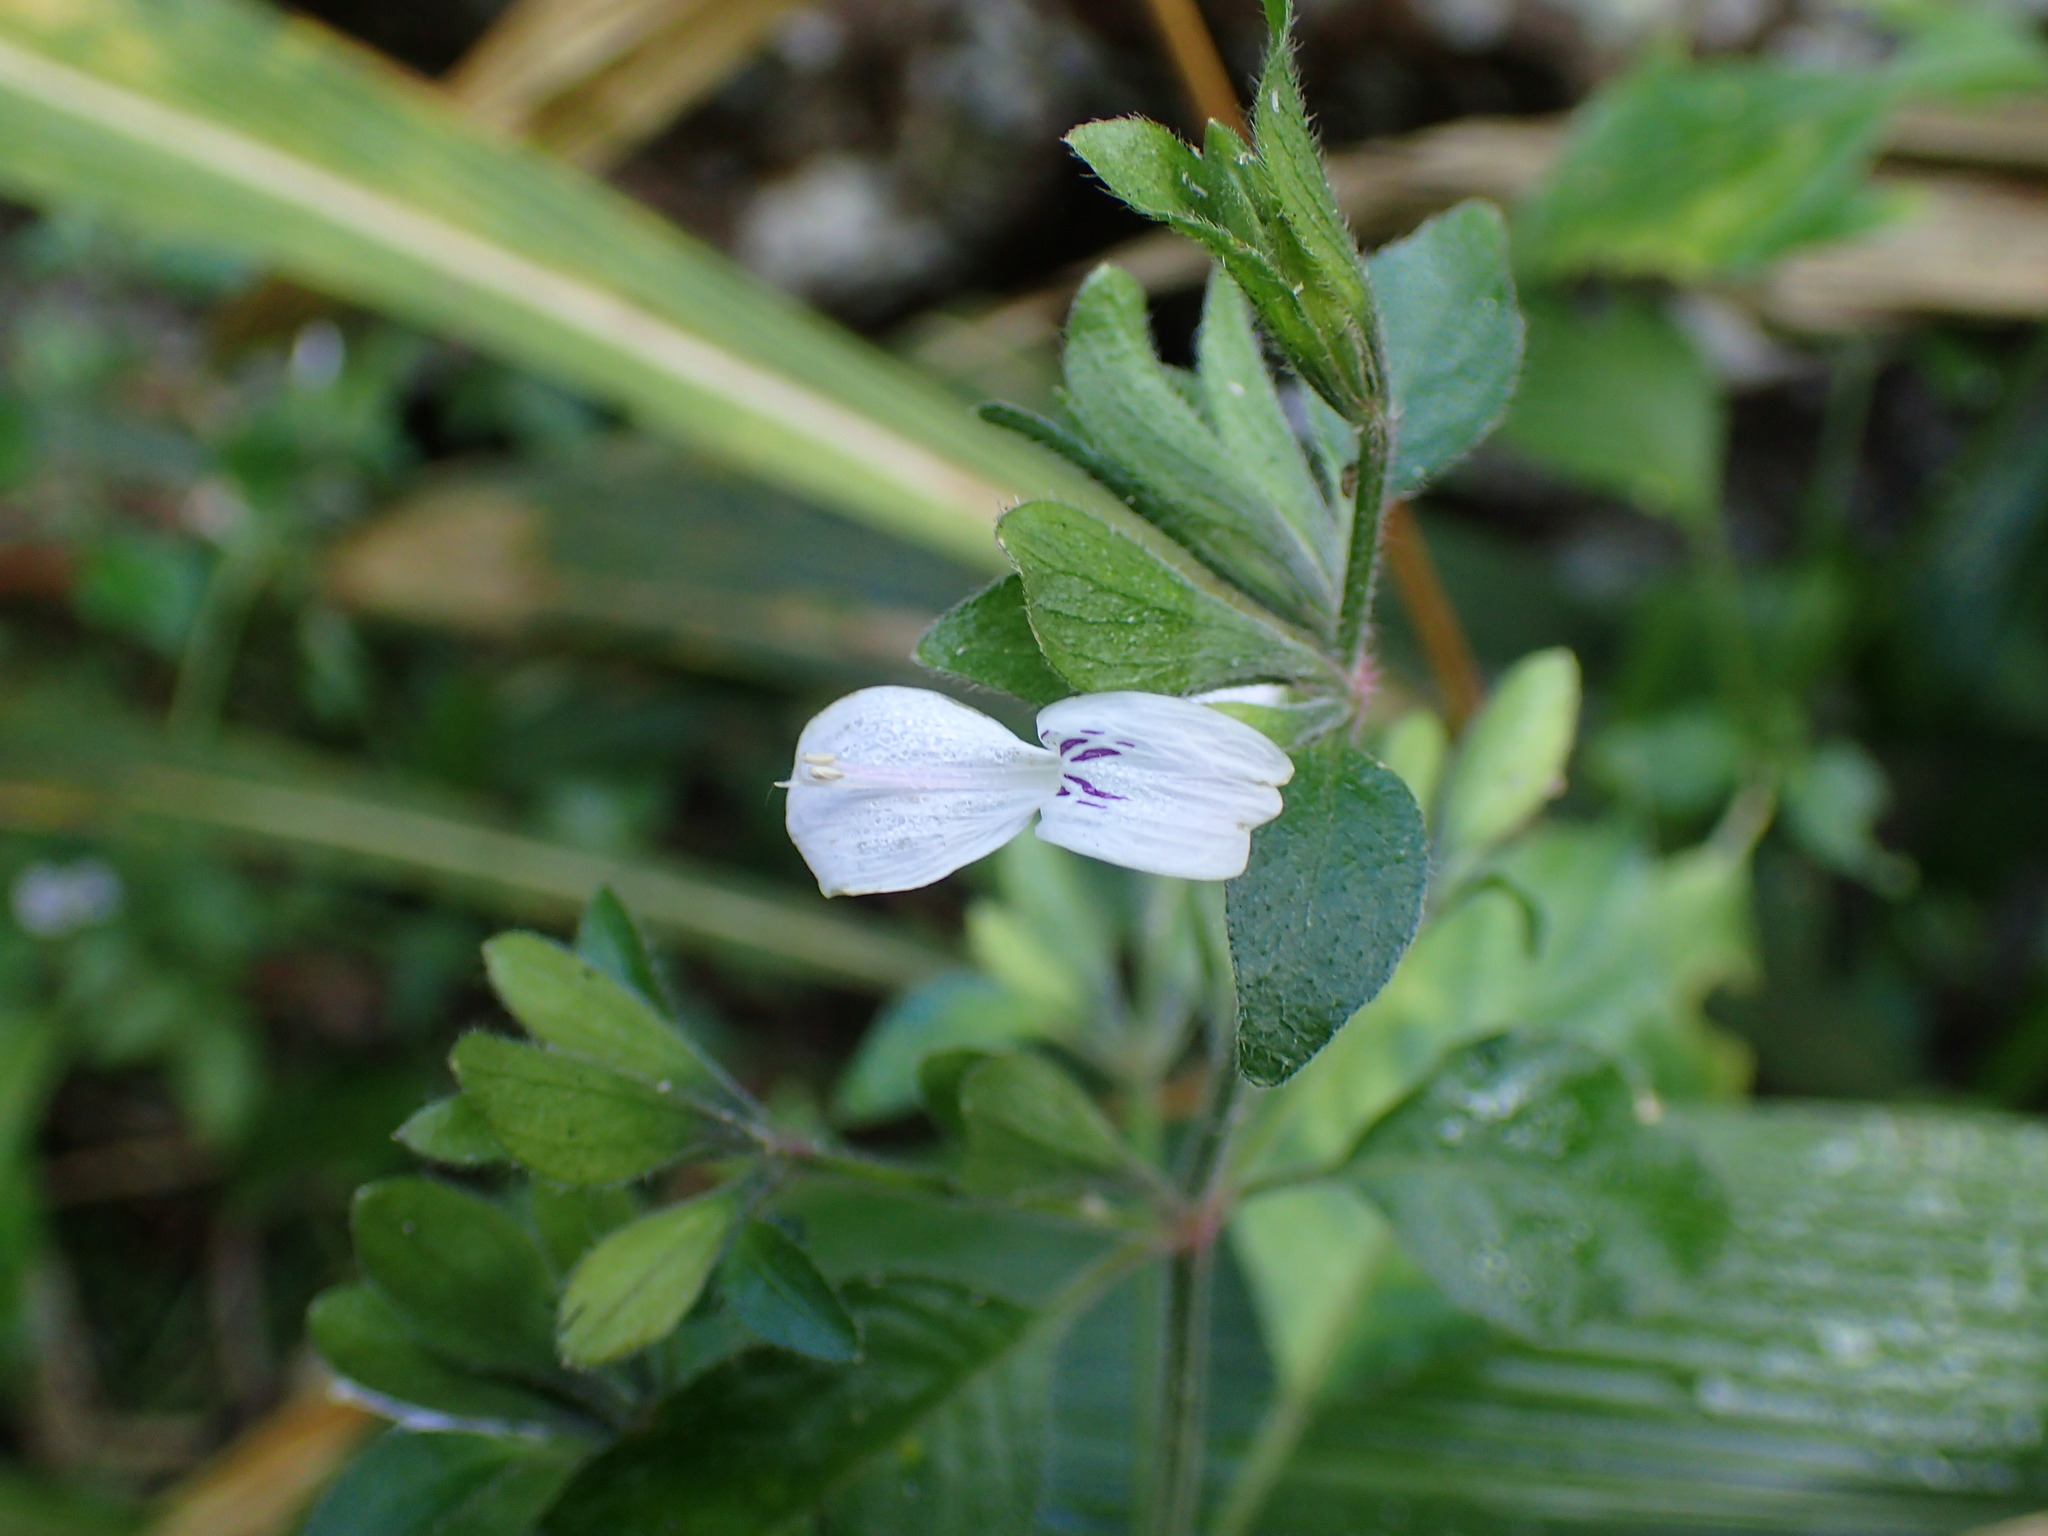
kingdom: Plantae
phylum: Tracheophyta
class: Magnoliopsida
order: Lamiales
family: Acanthaceae
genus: Hypoestes
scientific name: Hypoestes triflora
